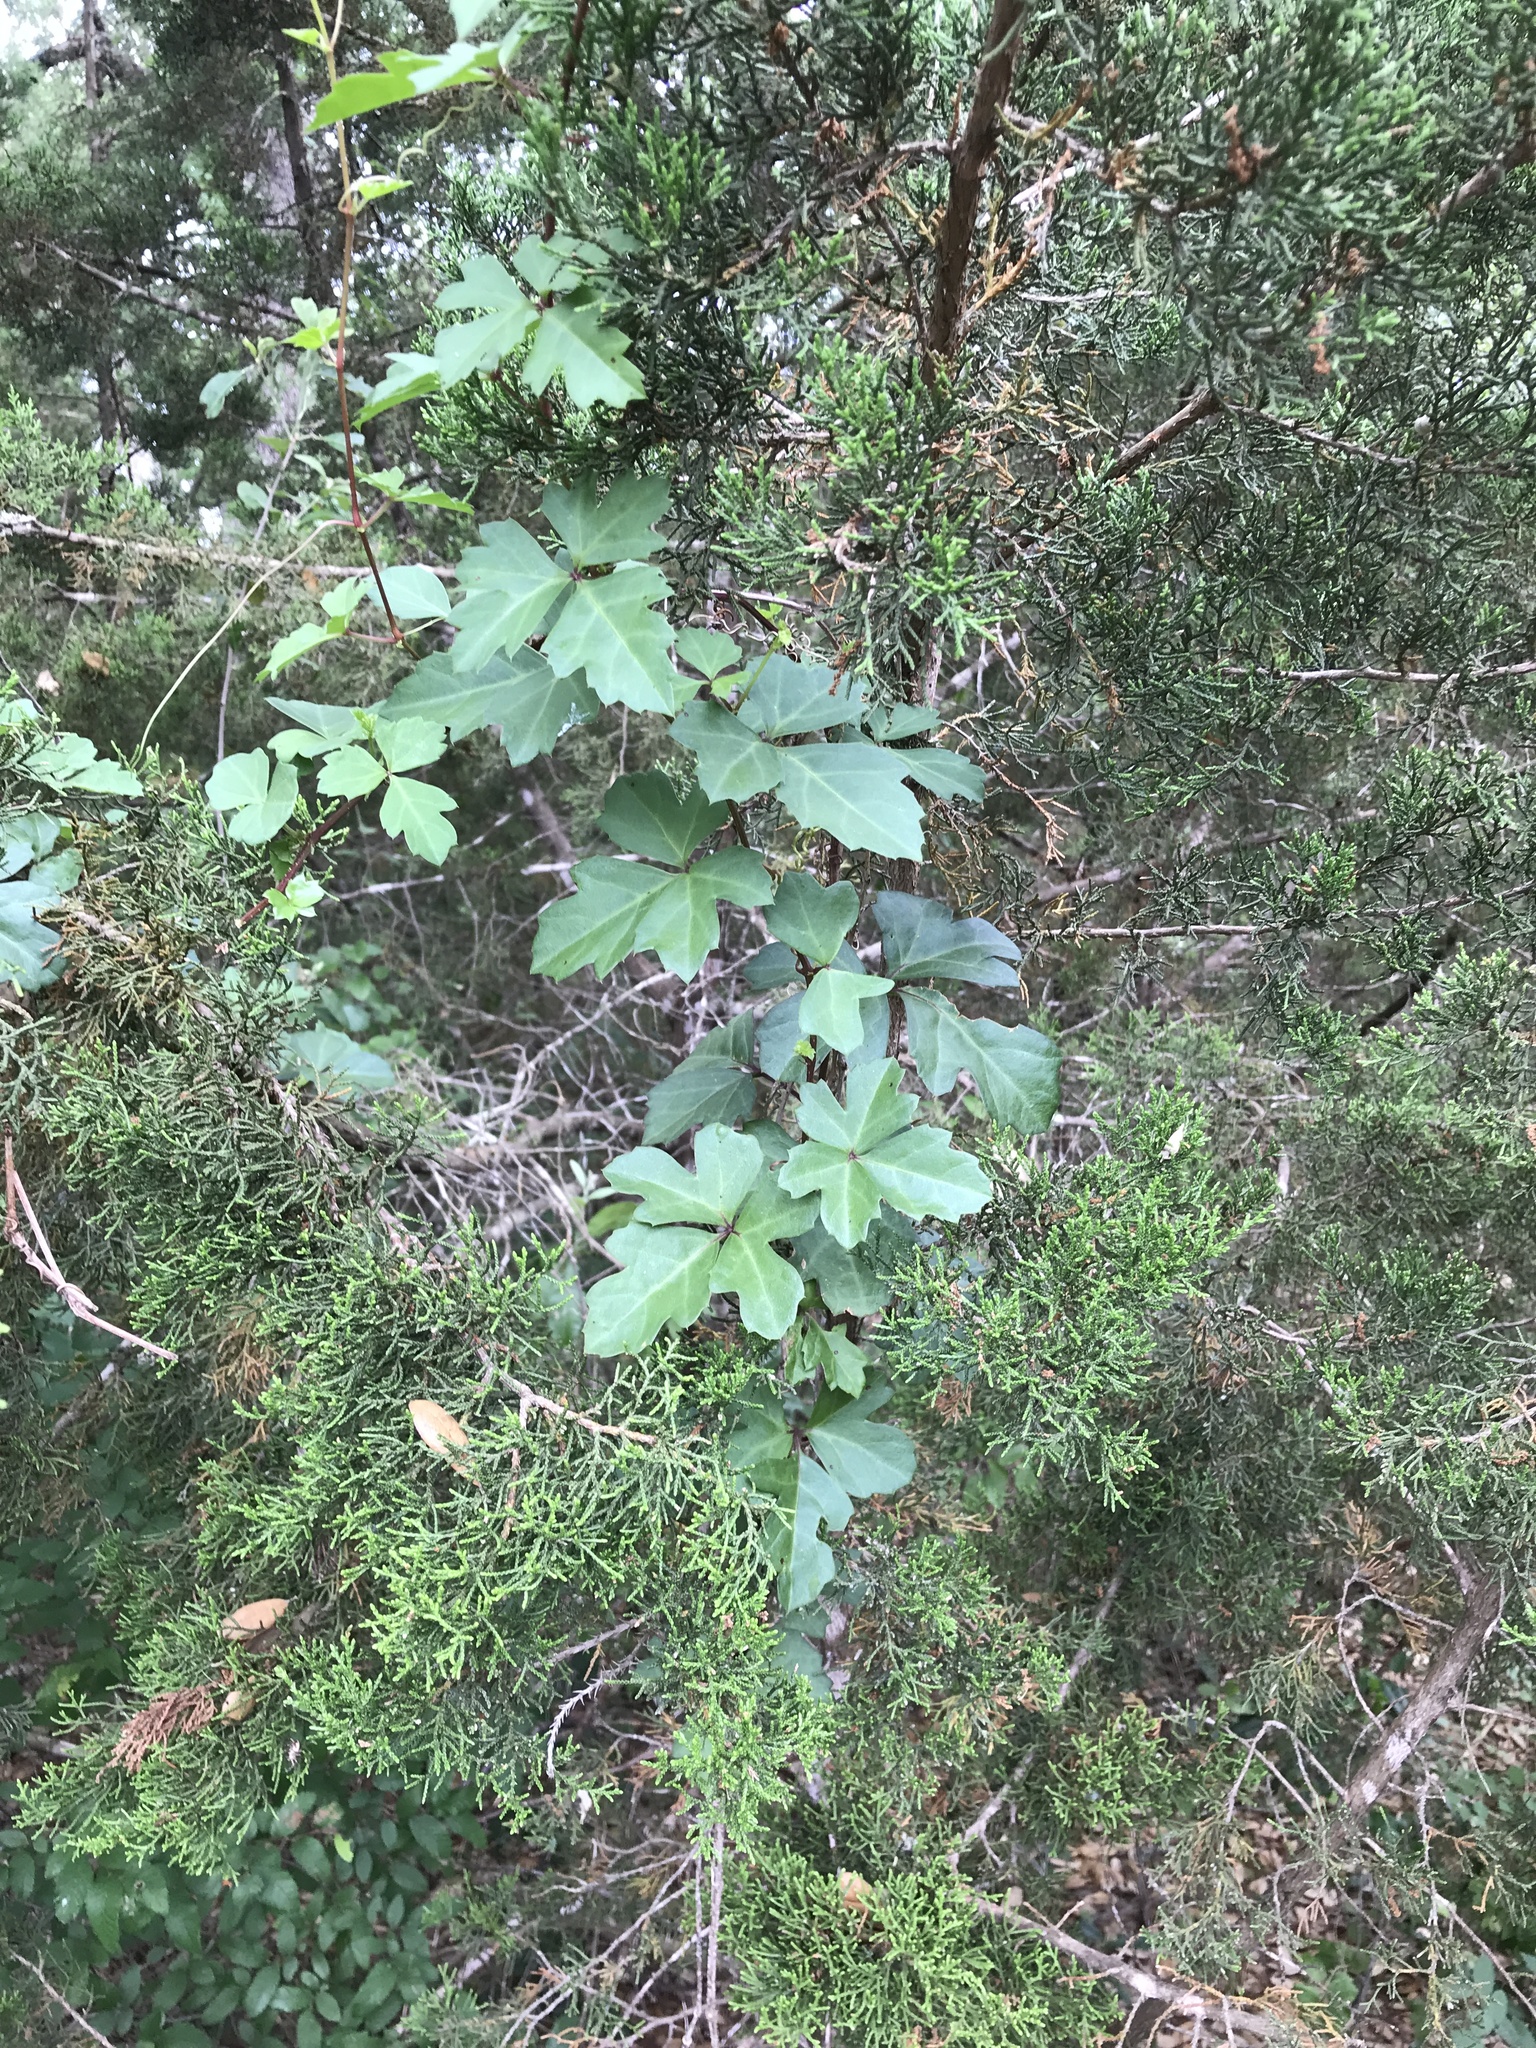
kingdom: Plantae
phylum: Tracheophyta
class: Magnoliopsida
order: Vitales
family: Vitaceae
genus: Cissus
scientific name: Cissus trifoliata
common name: Vine-sorrel
